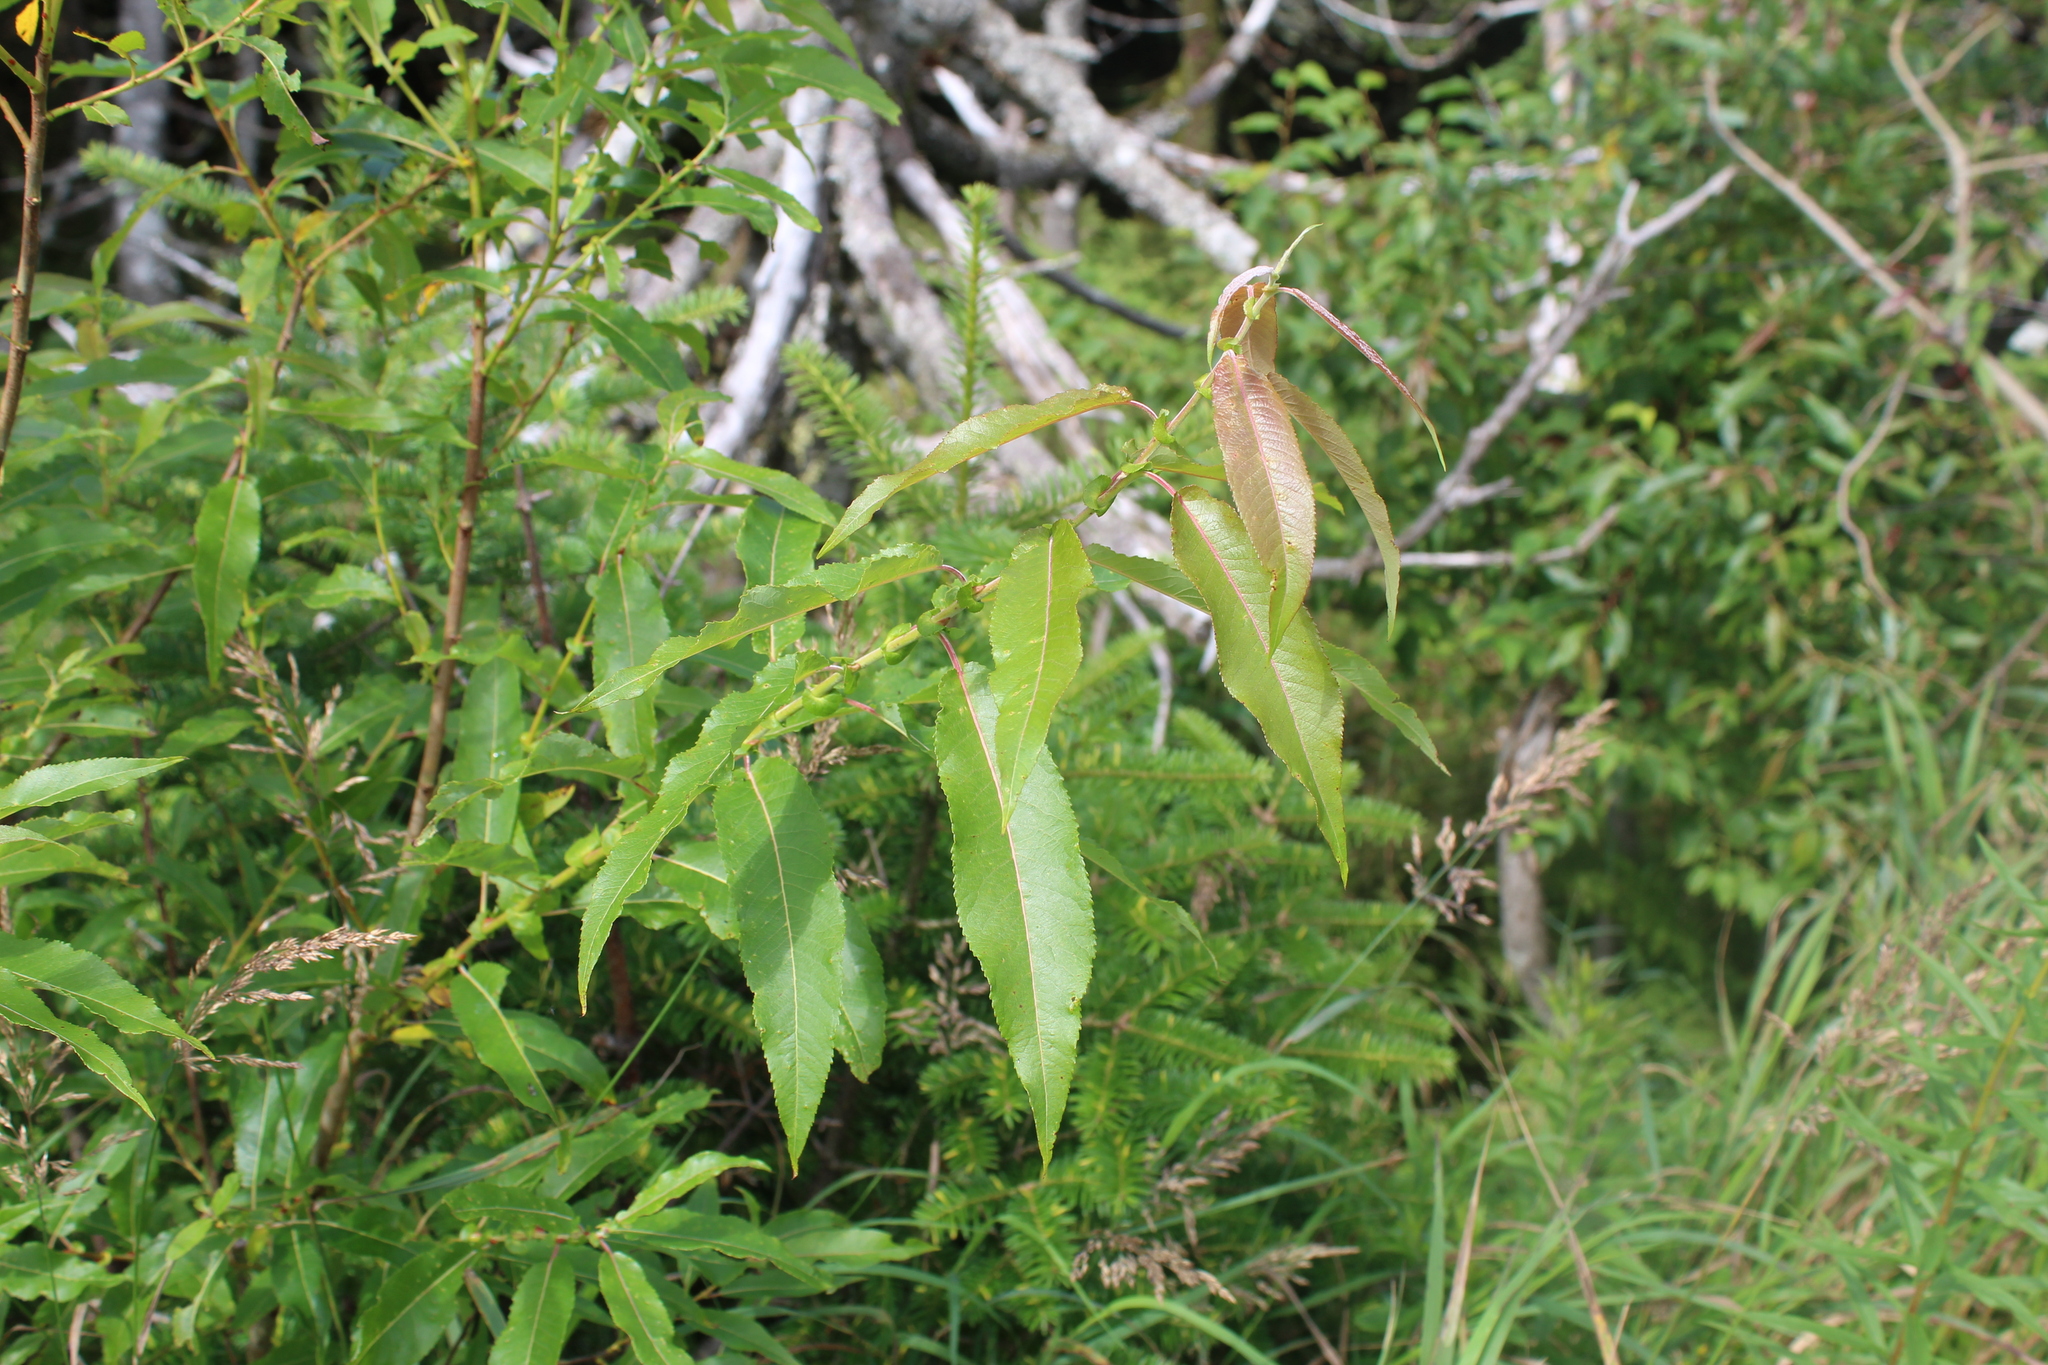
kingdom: Plantae
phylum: Tracheophyta
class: Magnoliopsida
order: Malpighiales
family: Salicaceae
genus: Salix
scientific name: Salix eriocephala
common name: Heart-leaved willow
